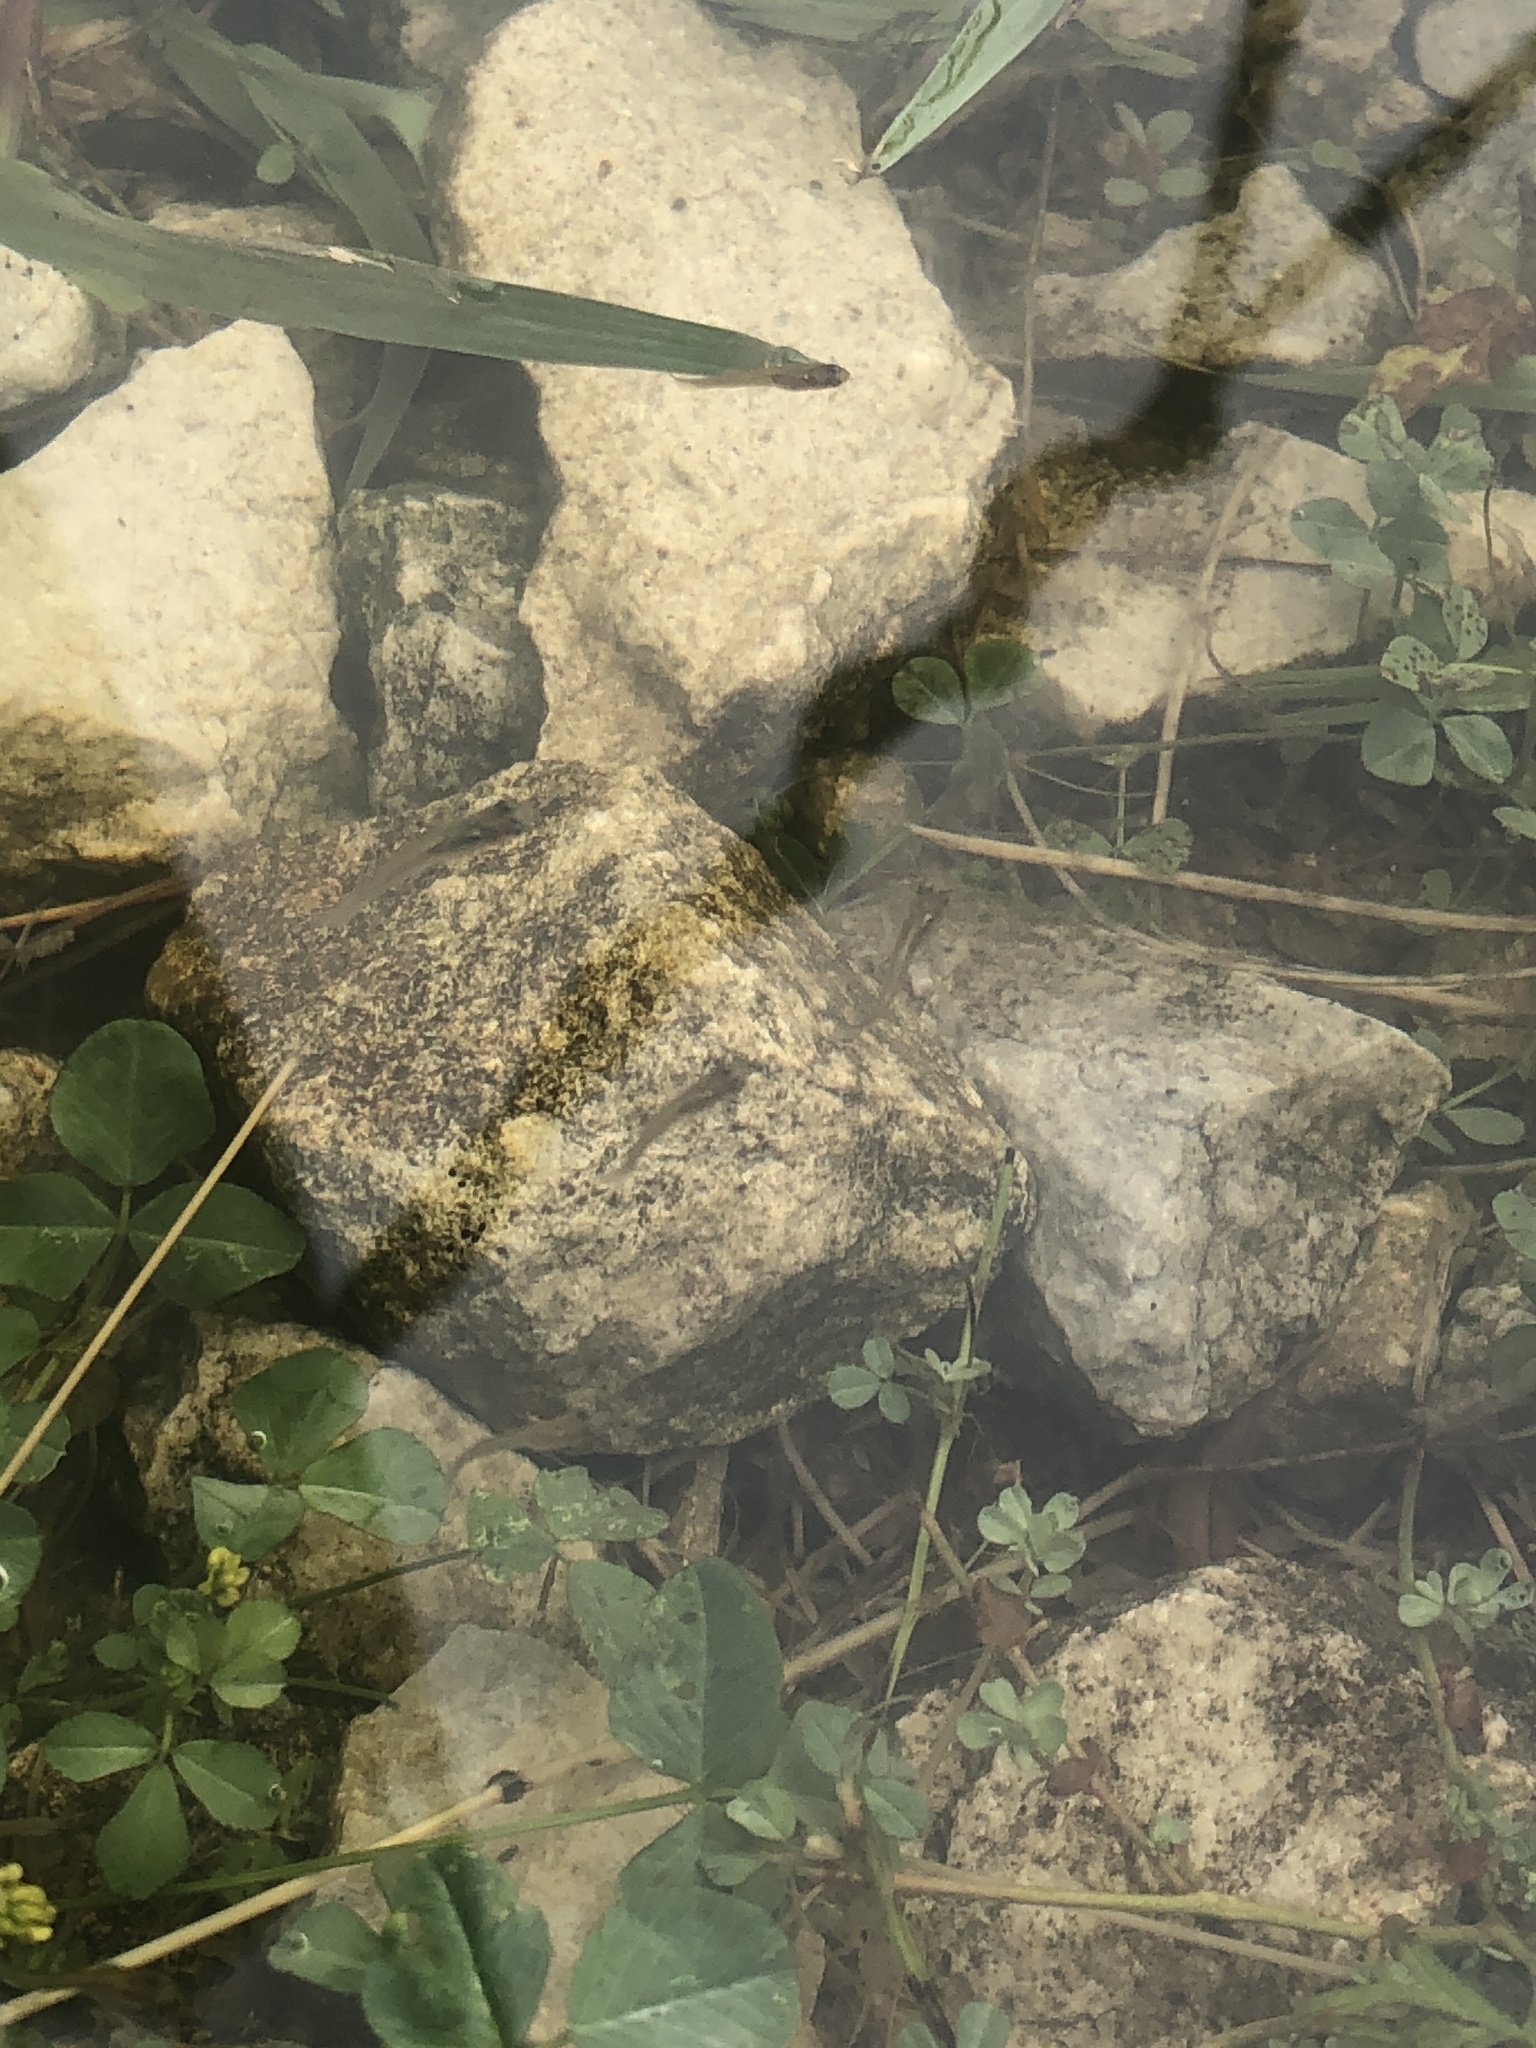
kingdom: Animalia
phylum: Chordata
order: Cyprinodontiformes
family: Poeciliidae
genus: Gambusia
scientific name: Gambusia affinis
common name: Mosquitofish
